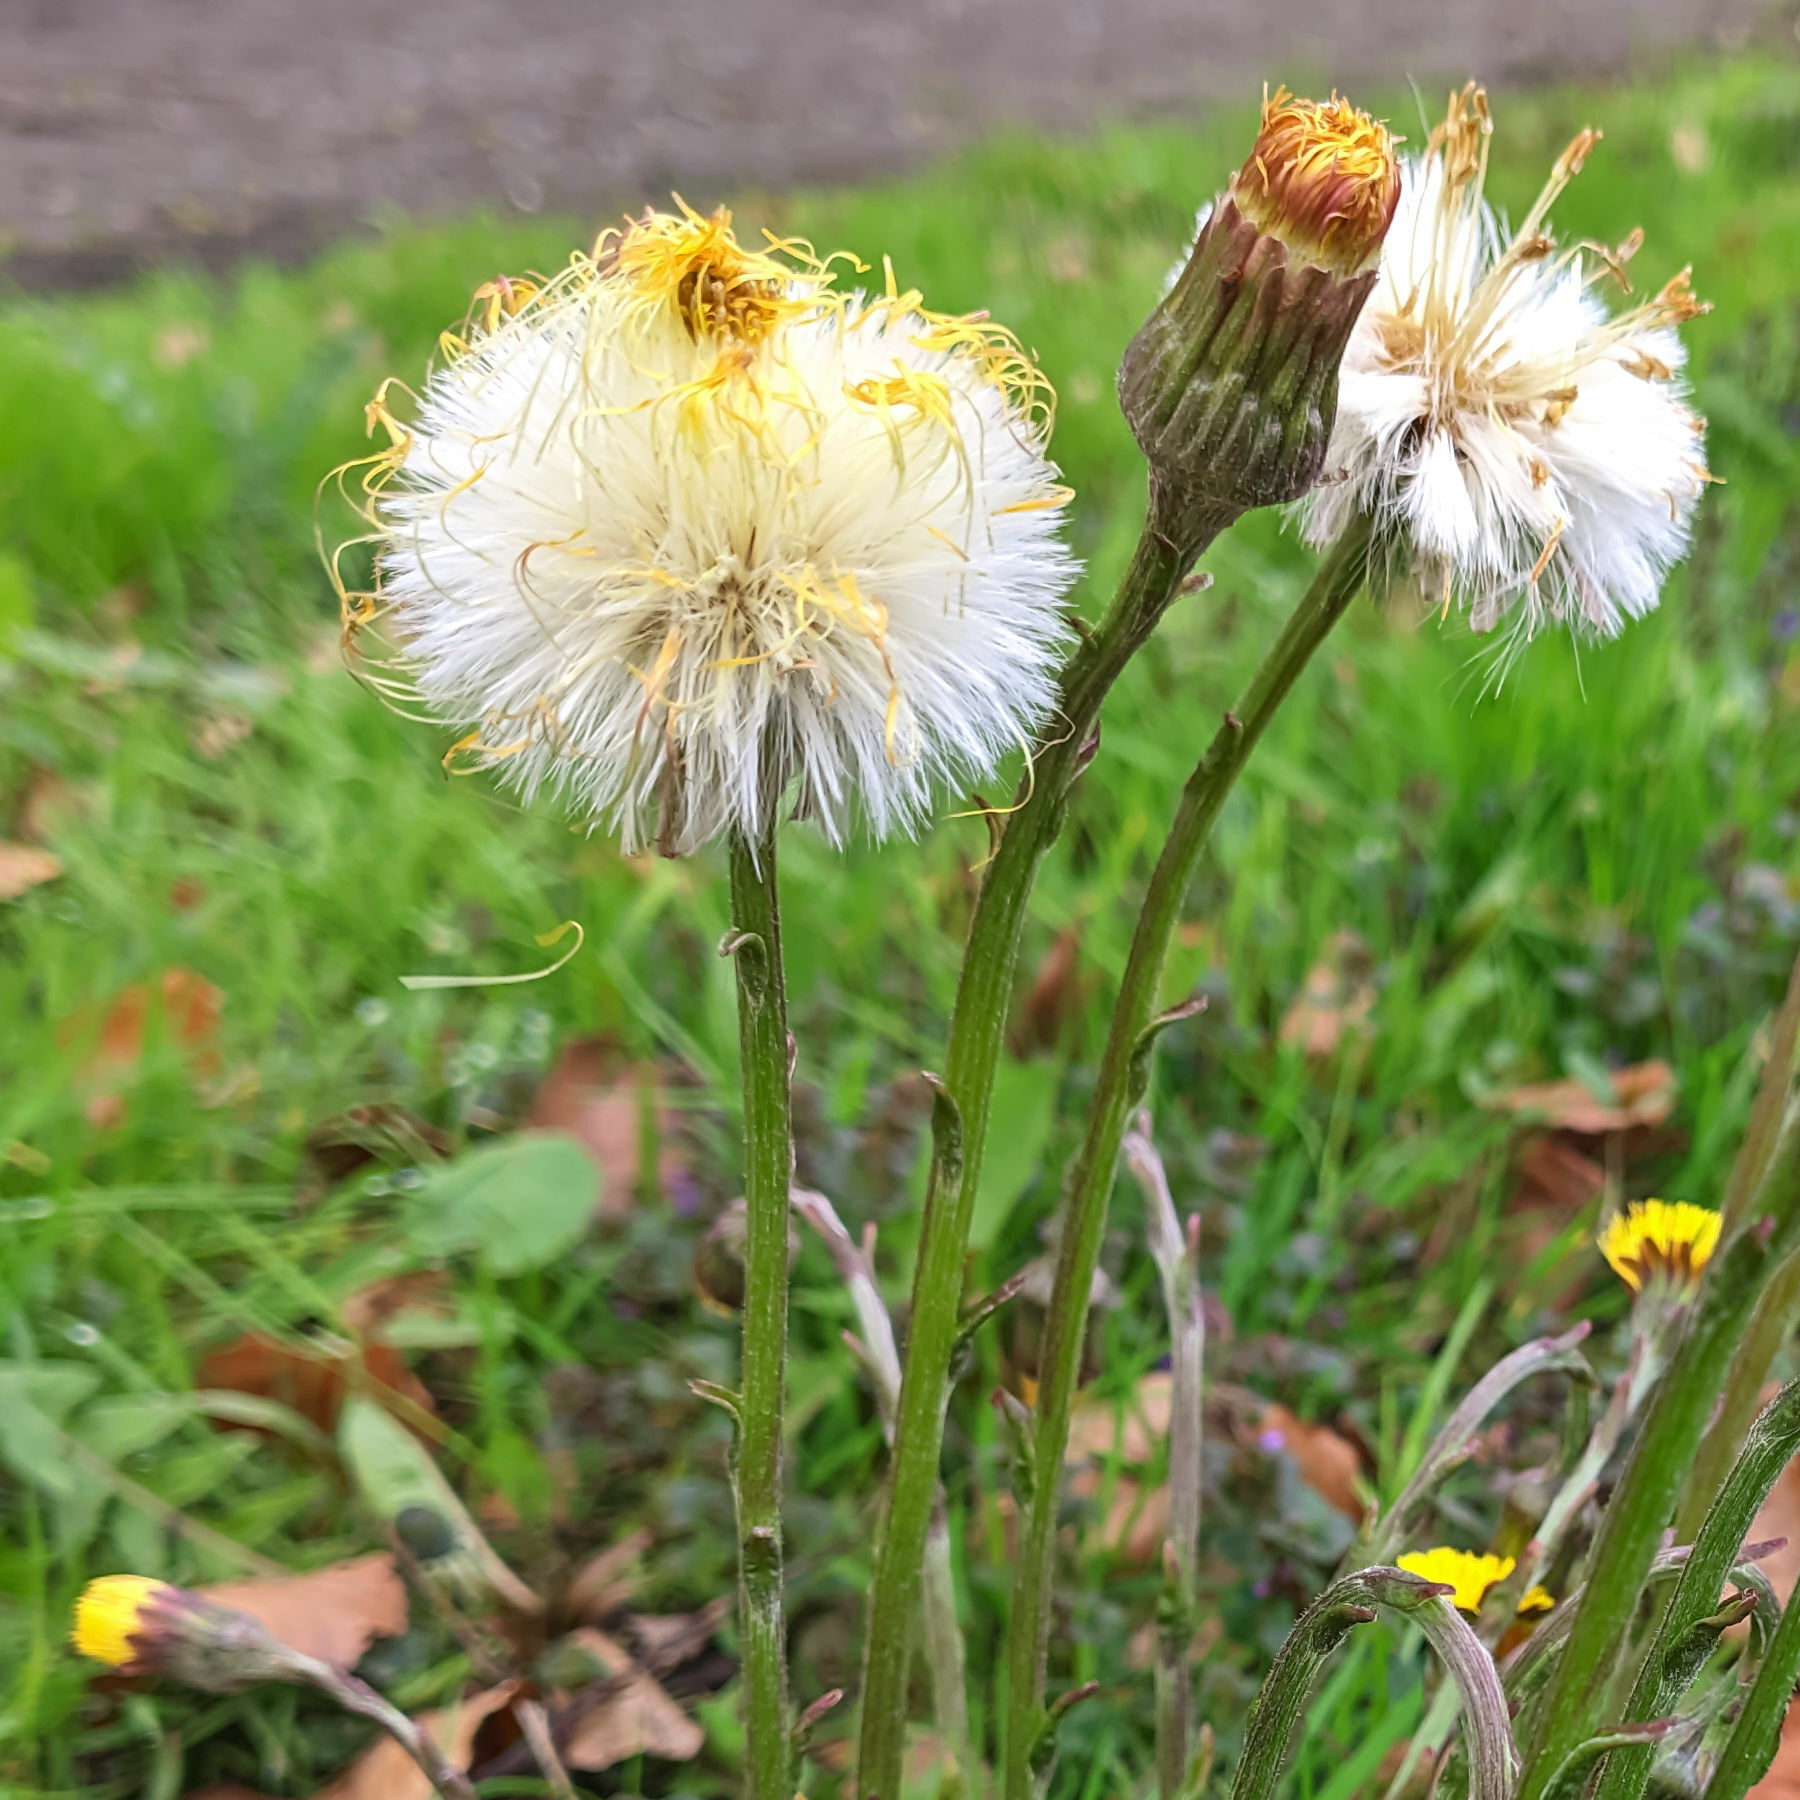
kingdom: Plantae
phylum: Tracheophyta
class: Magnoliopsida
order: Asterales
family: Asteraceae
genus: Tussilago
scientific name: Tussilago farfara
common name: Coltsfoot
